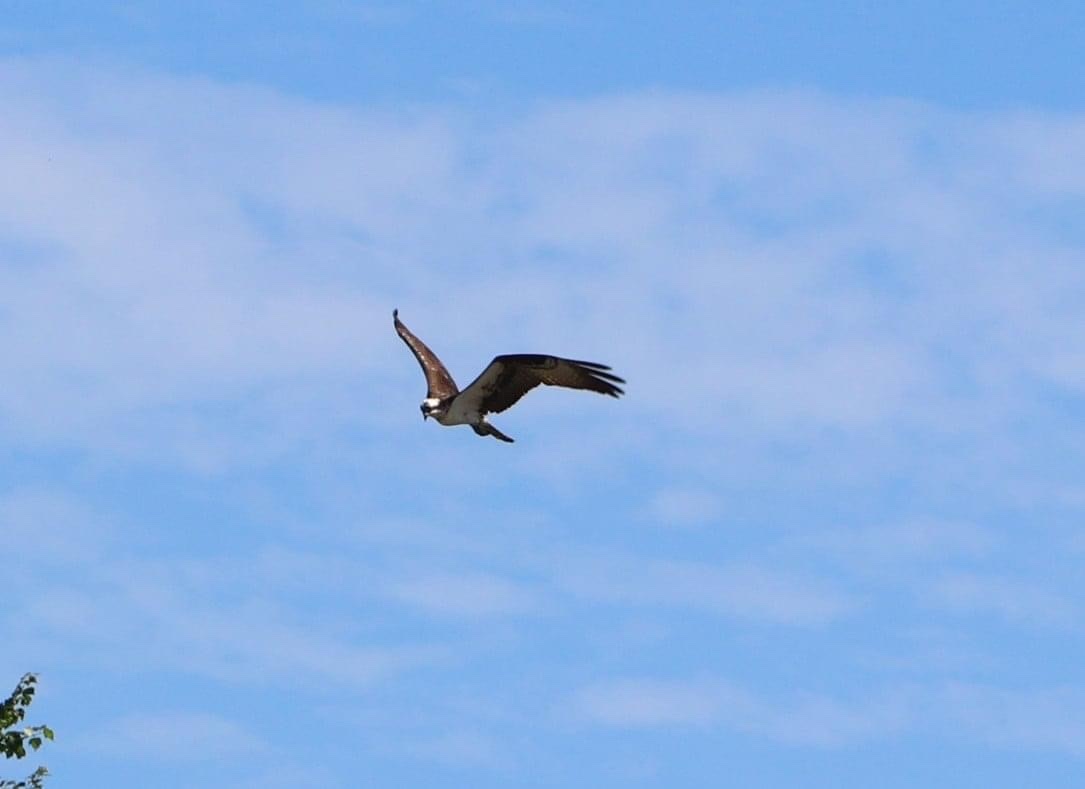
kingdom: Animalia
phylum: Chordata
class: Aves
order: Accipitriformes
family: Pandionidae
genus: Pandion
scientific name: Pandion haliaetus
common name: Osprey
